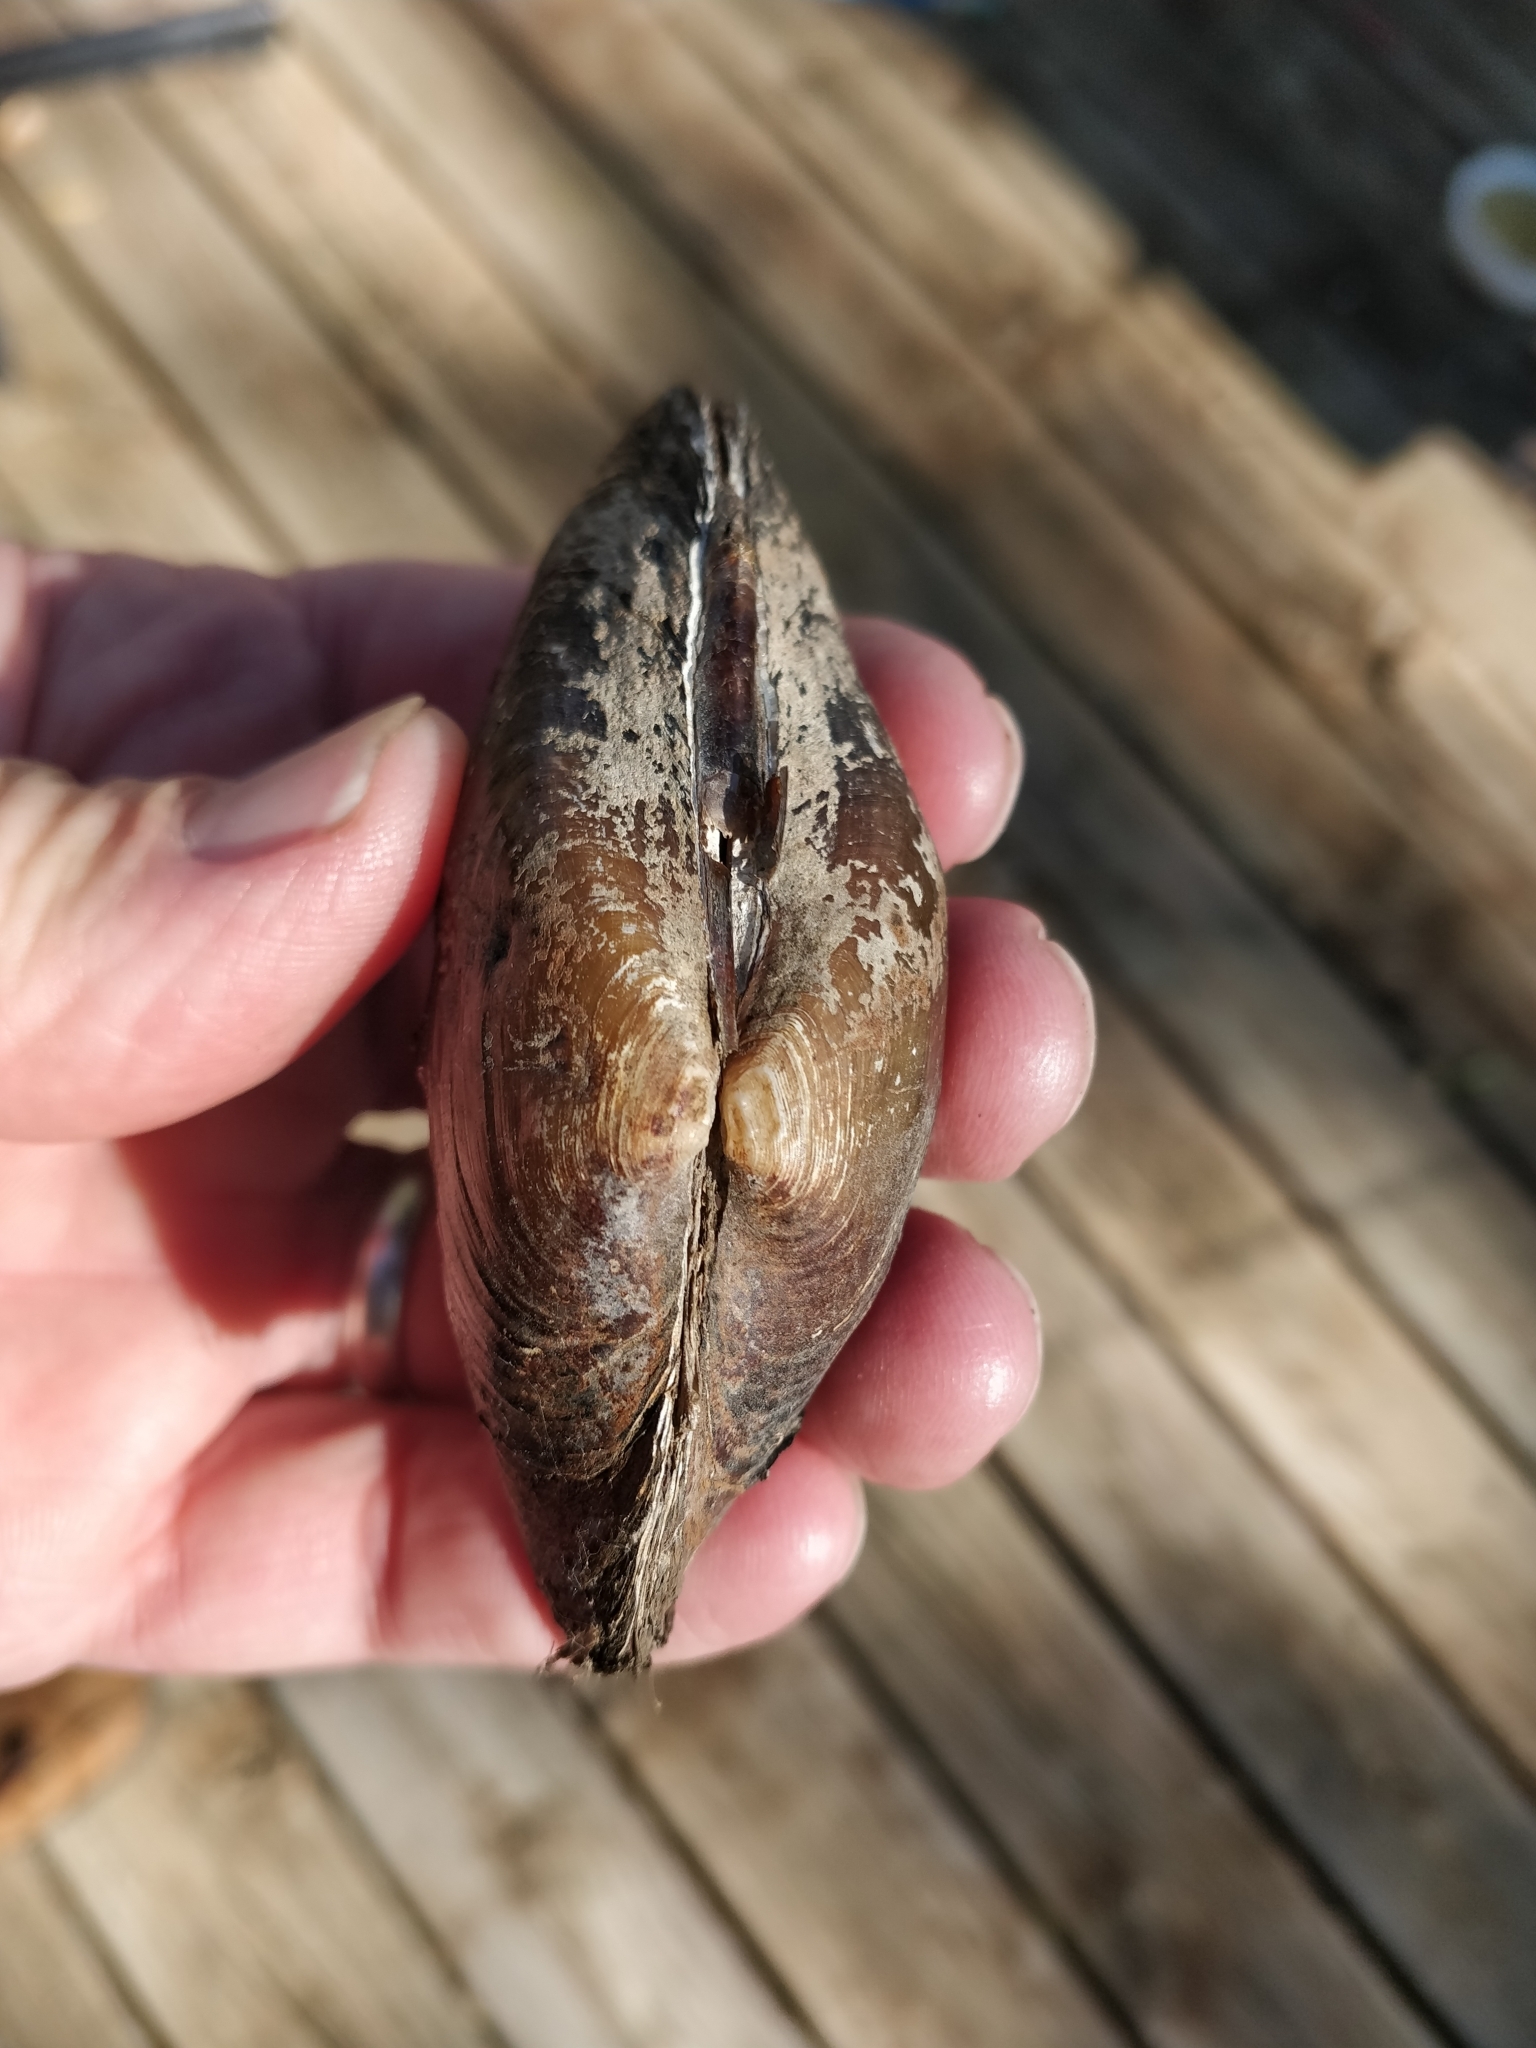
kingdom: Animalia
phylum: Mollusca
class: Bivalvia
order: Unionida
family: Unionidae
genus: Strophitus
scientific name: Strophitus undulatus
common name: Creeper
